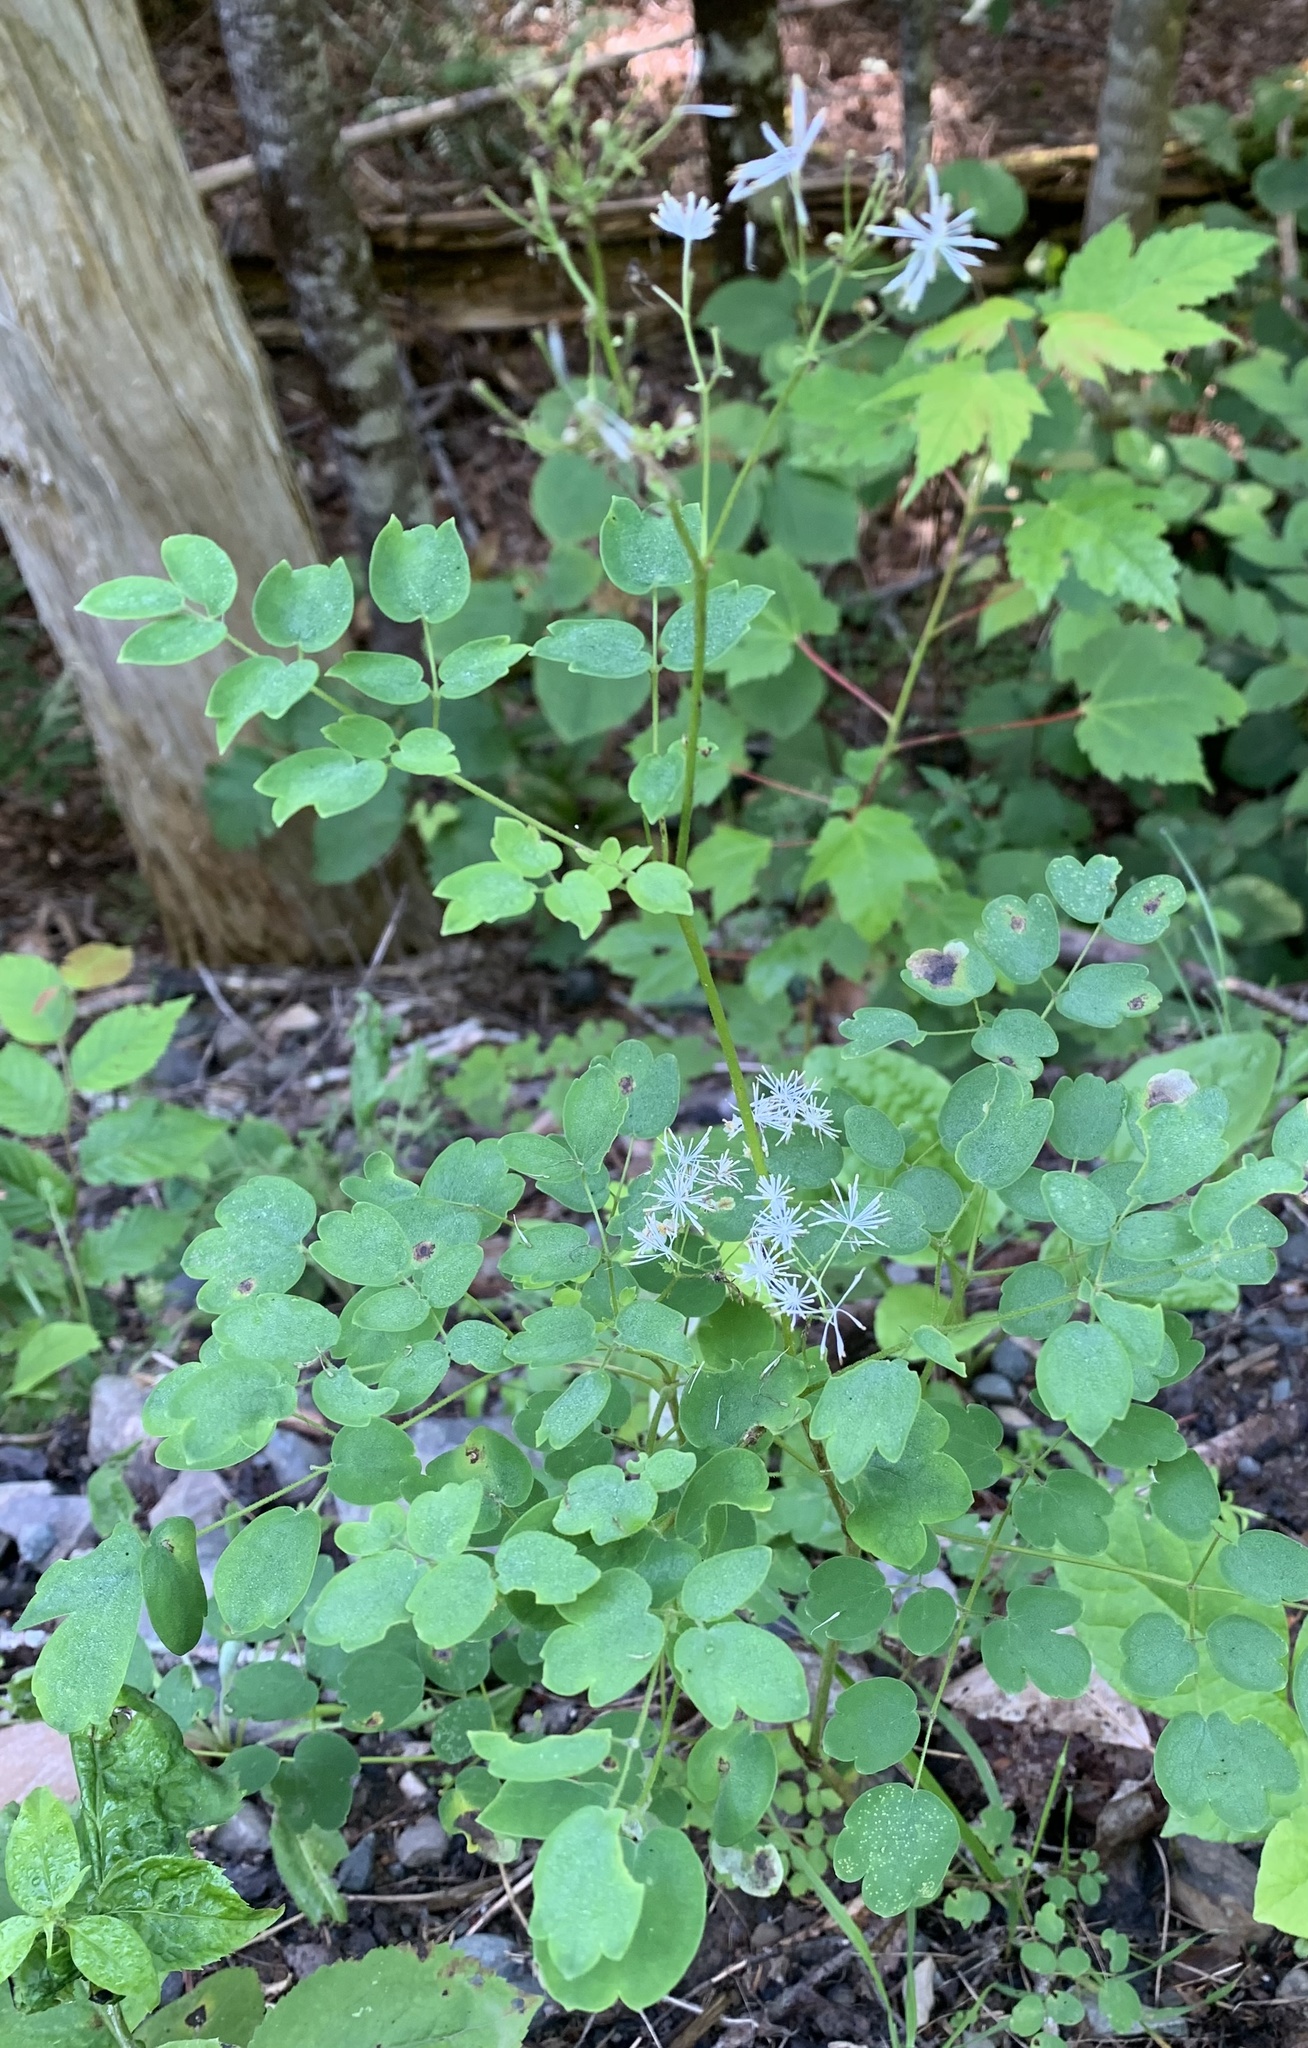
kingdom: Plantae
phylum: Tracheophyta
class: Magnoliopsida
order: Ranunculales
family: Ranunculaceae
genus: Thalictrum
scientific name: Thalictrum pubescens
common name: King-of-the-meadow
